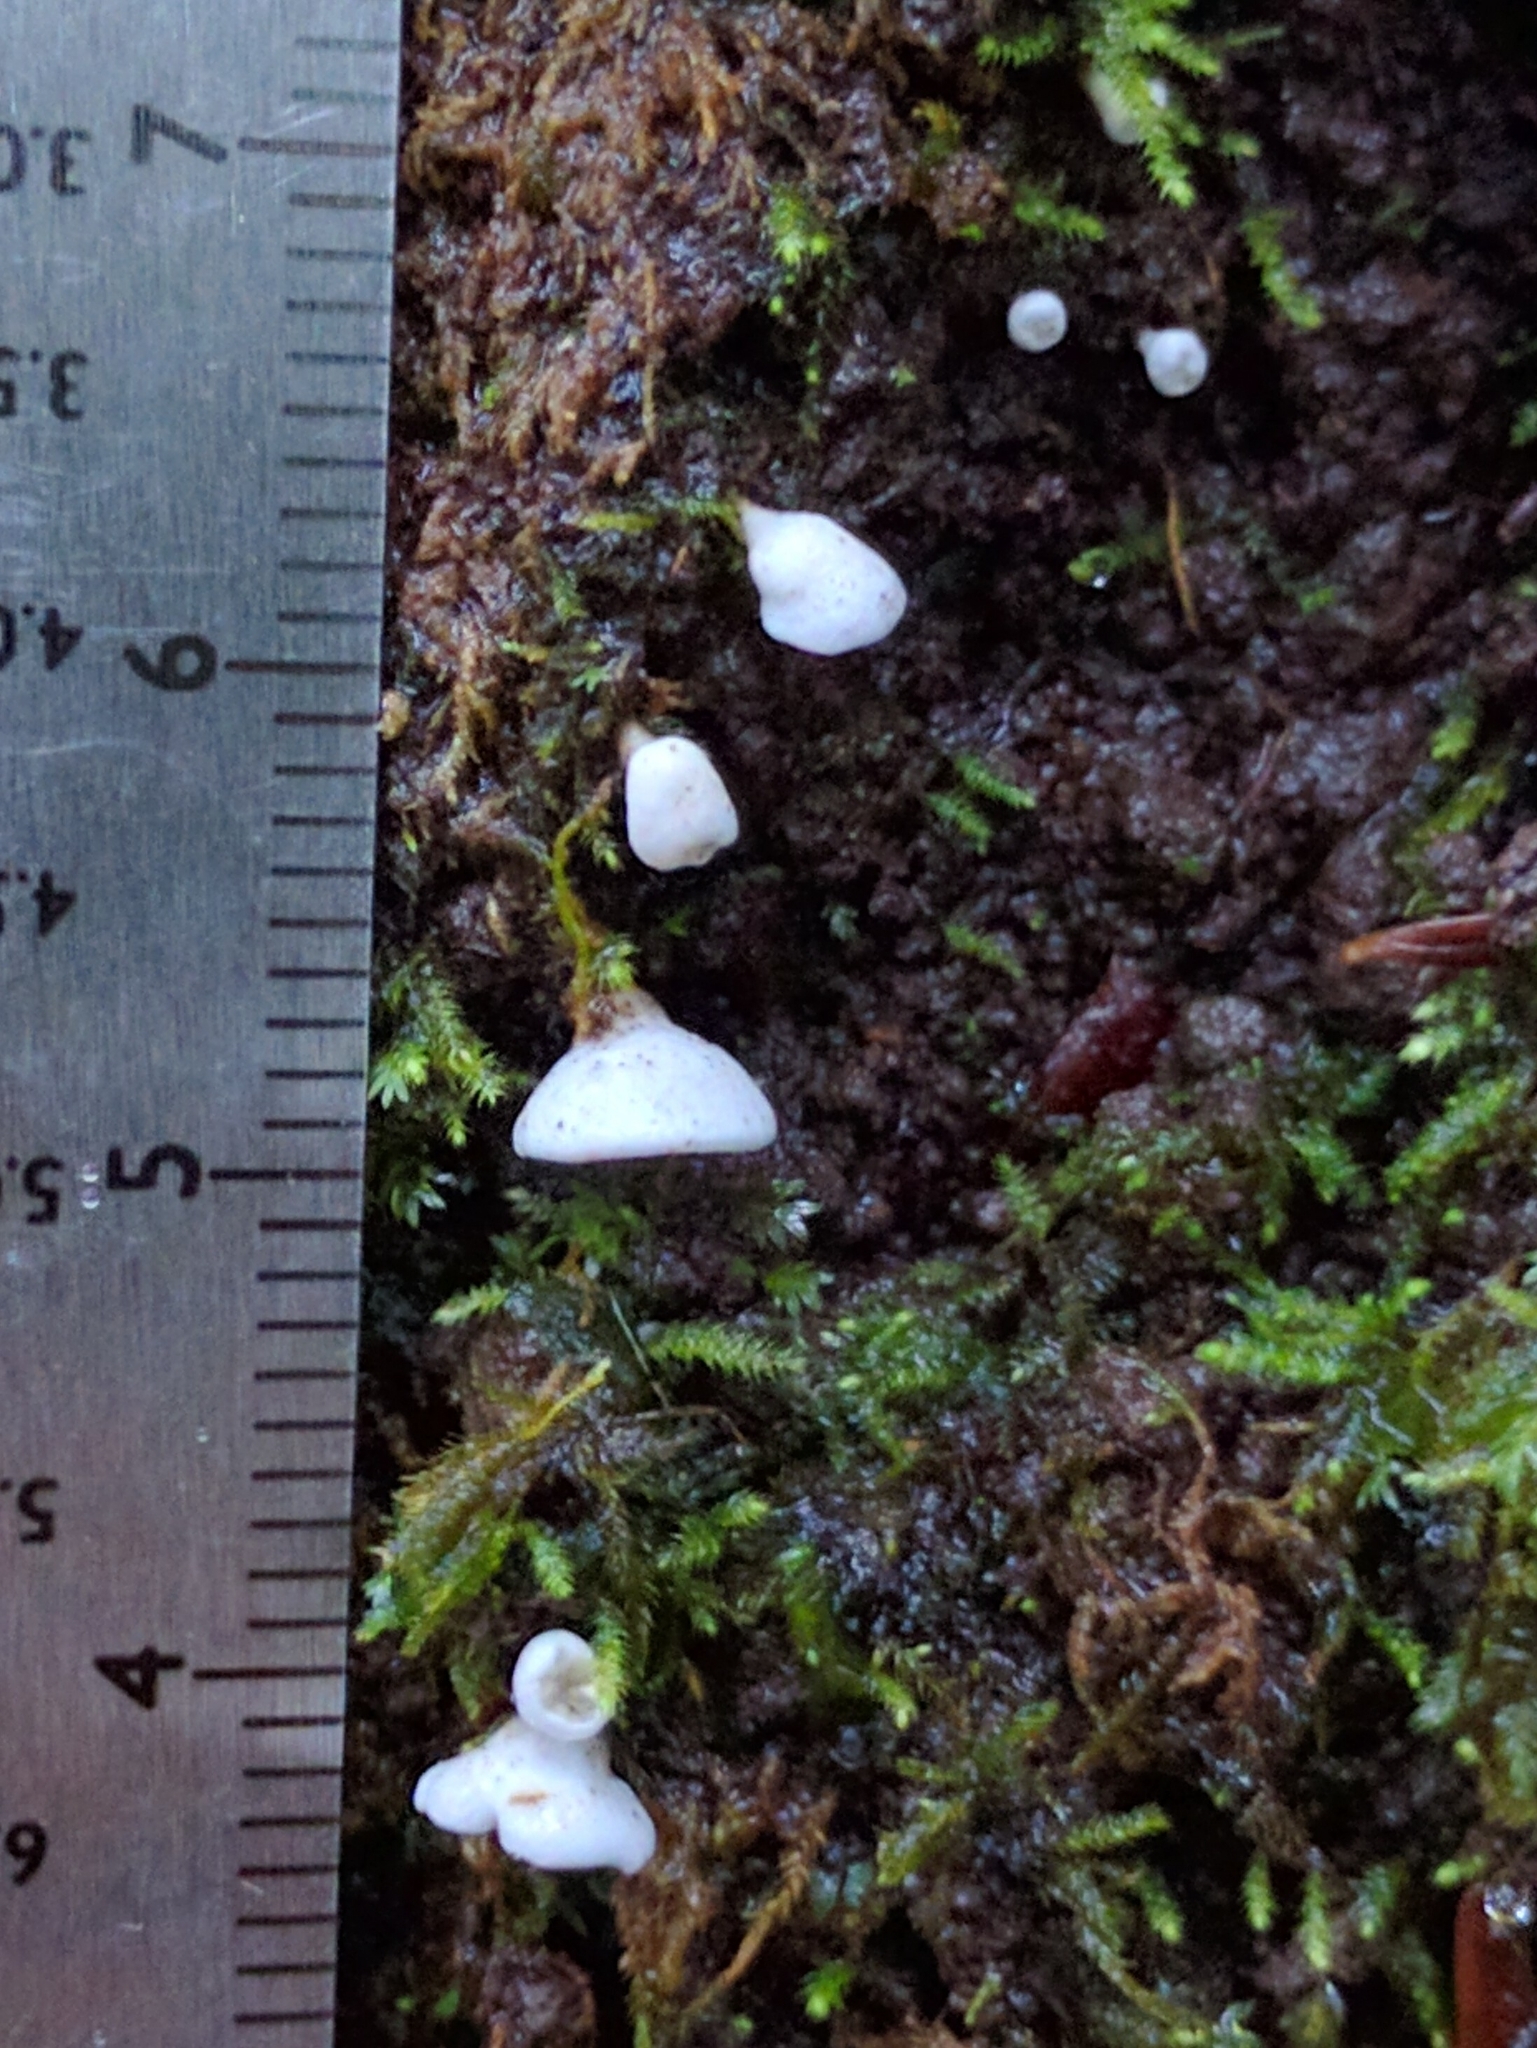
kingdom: Fungi
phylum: Basidiomycota
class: Agaricomycetes
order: Agaricales
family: Tricholomataceae
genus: Rimbachia
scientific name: Rimbachia bryophila
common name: Veined mossear
